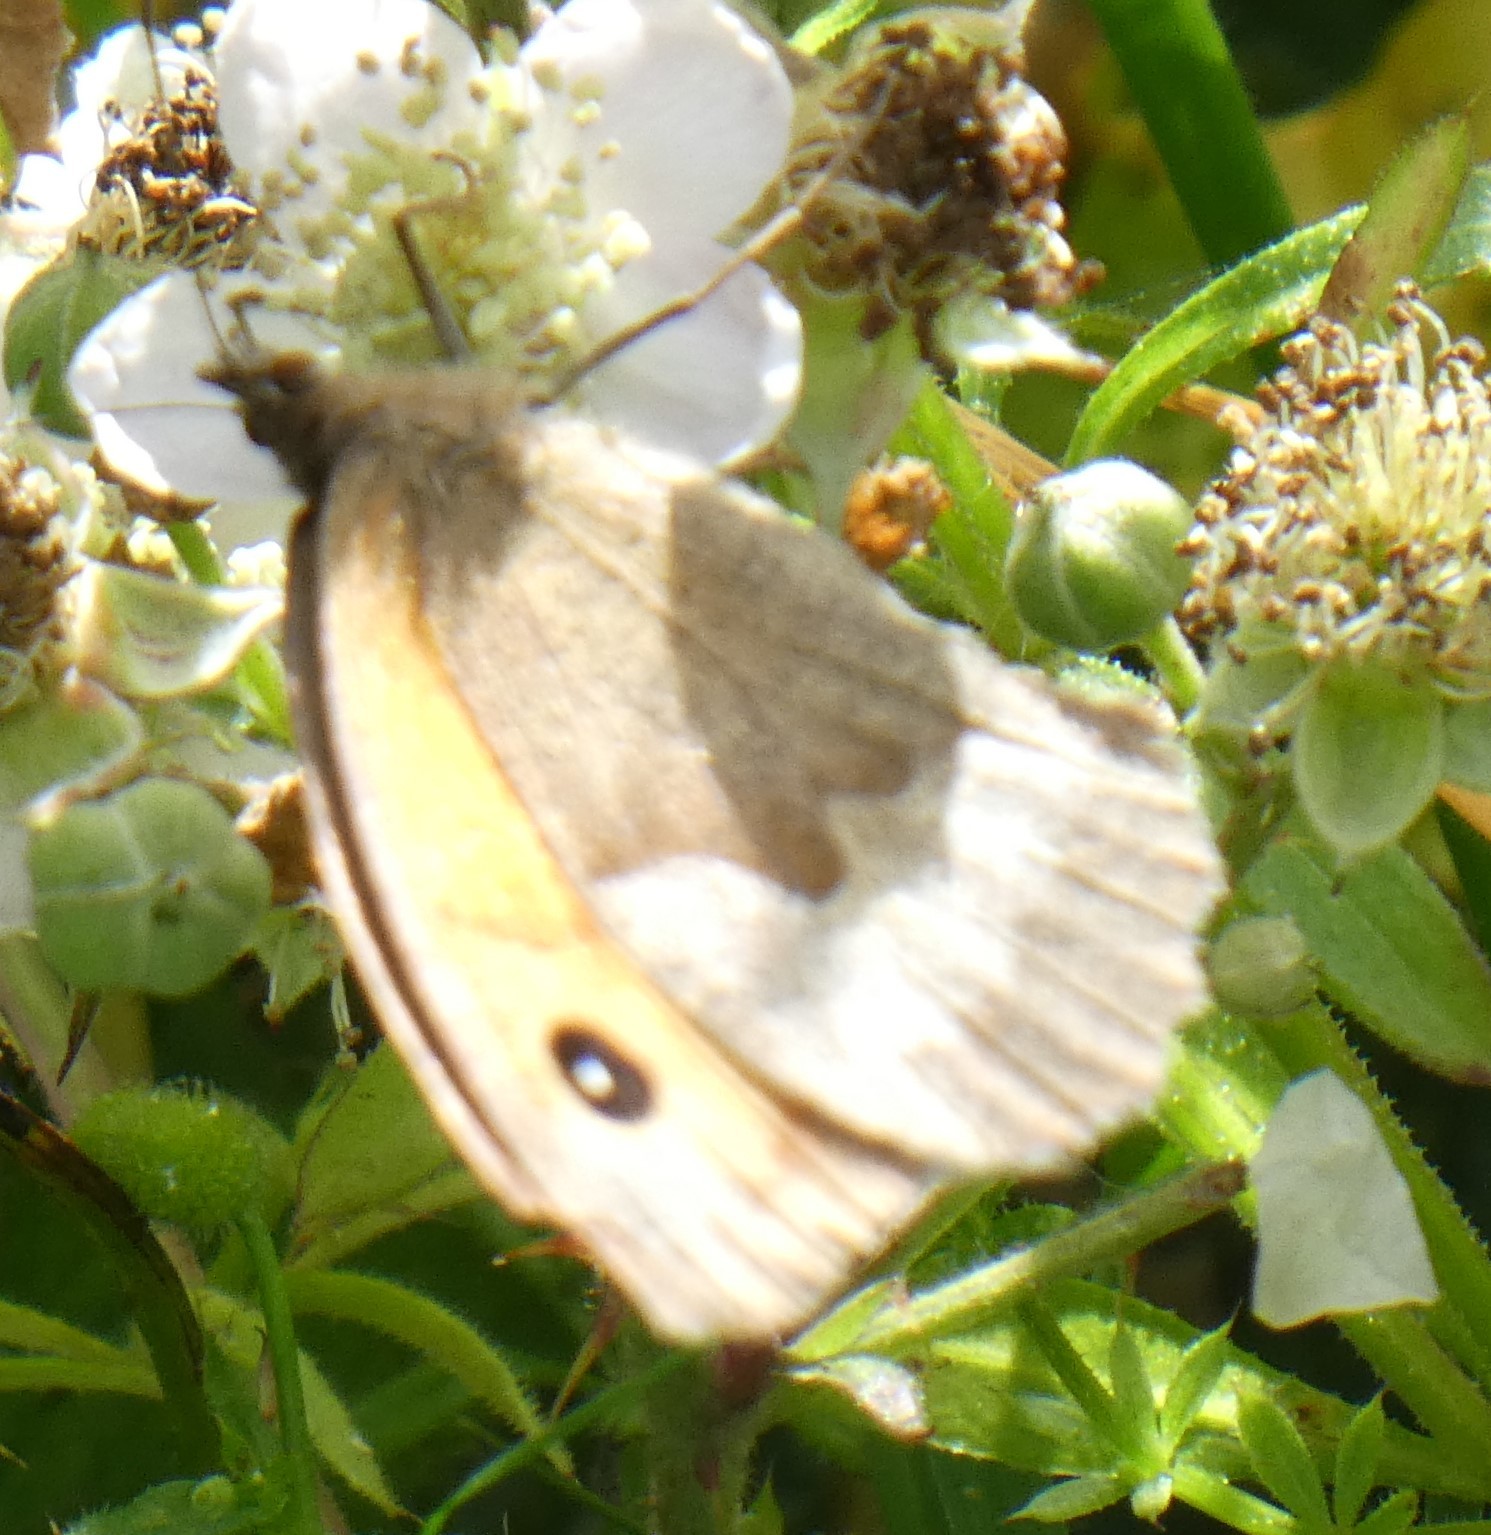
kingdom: Animalia
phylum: Arthropoda
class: Insecta
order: Lepidoptera
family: Nymphalidae
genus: Maniola
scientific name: Maniola jurtina
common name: Meadow brown
